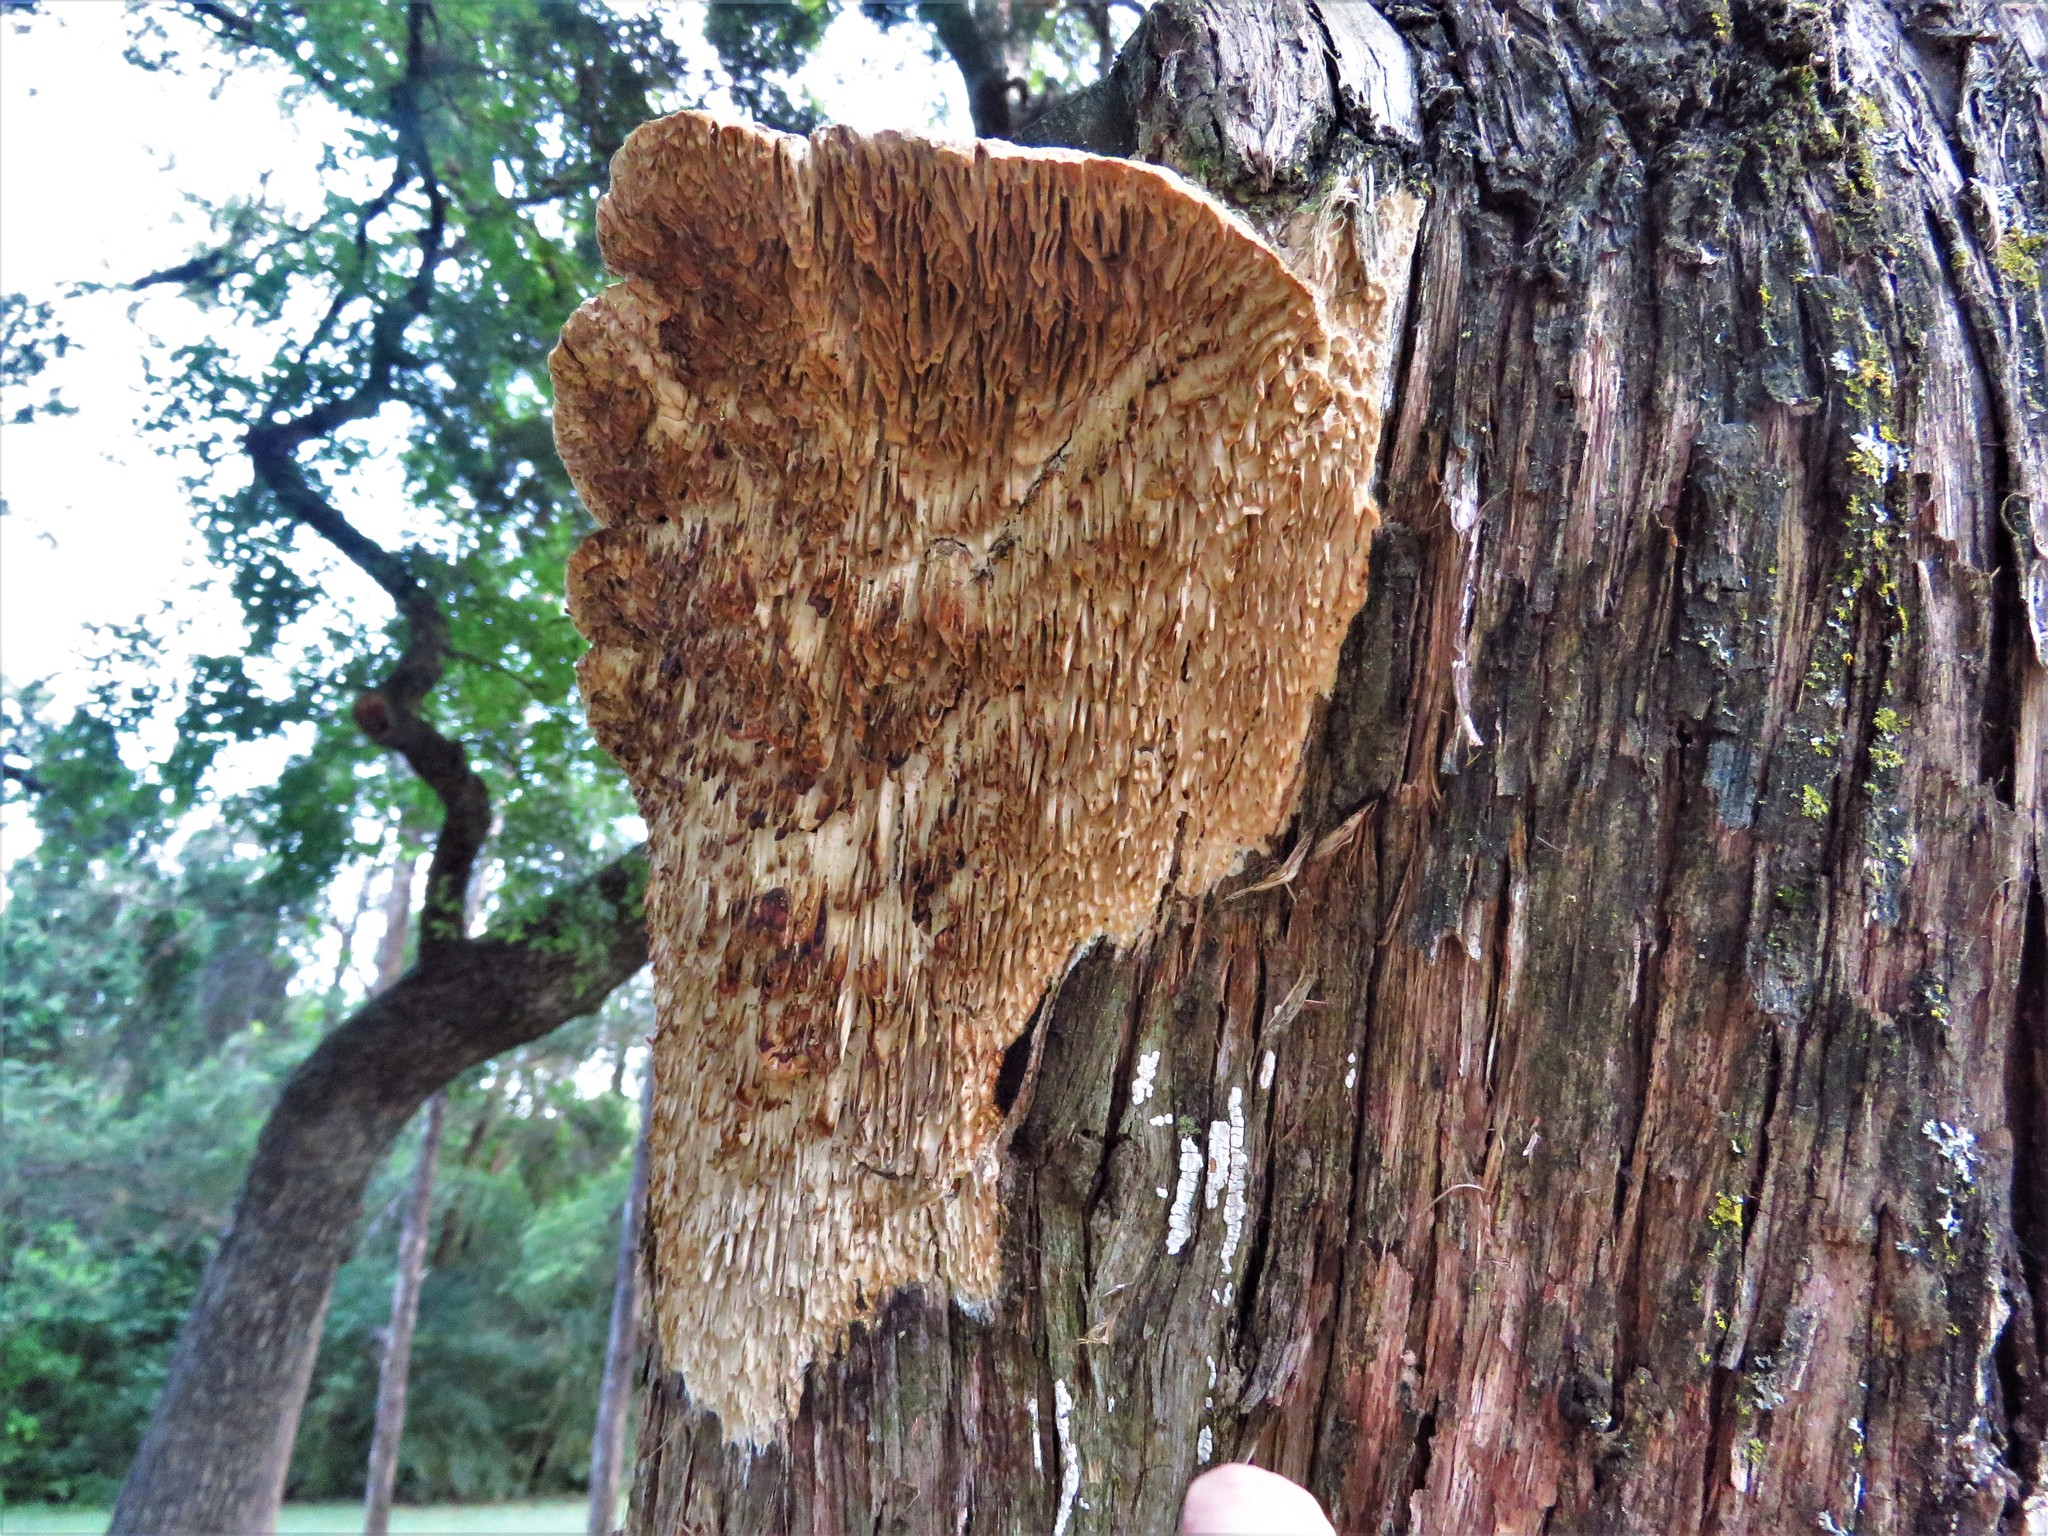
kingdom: Fungi
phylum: Basidiomycota
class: Agaricomycetes
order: Polyporales
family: Fomitopsidaceae
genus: Fomitopsis
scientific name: Fomitopsis
